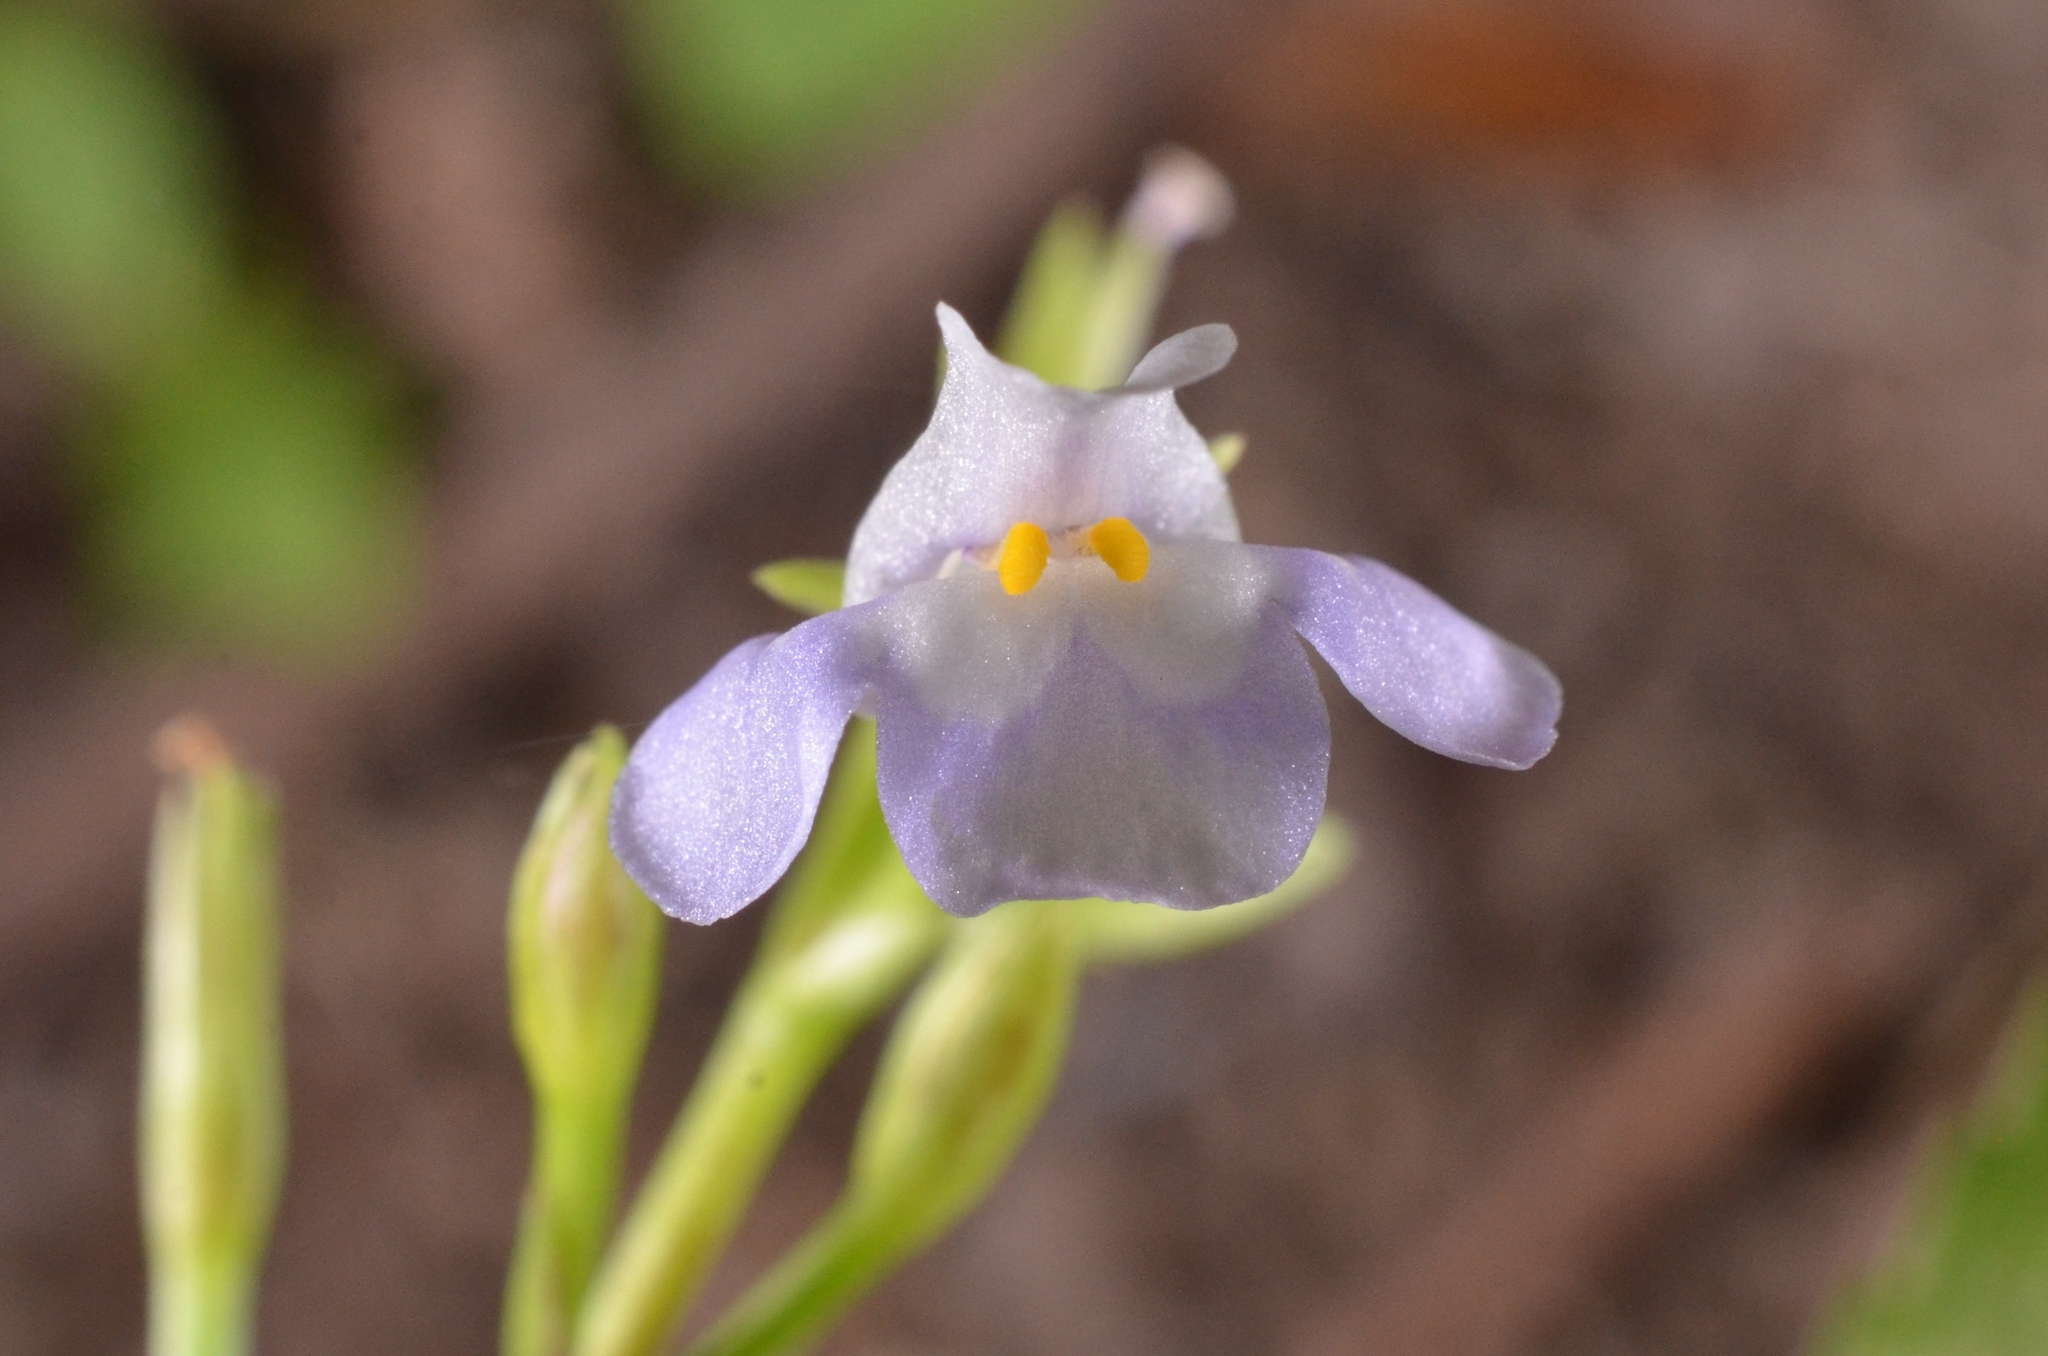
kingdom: Plantae
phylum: Tracheophyta
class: Magnoliopsida
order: Lamiales
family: Linderniaceae
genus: Bonnaya
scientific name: Bonnaya sanpabloensis
